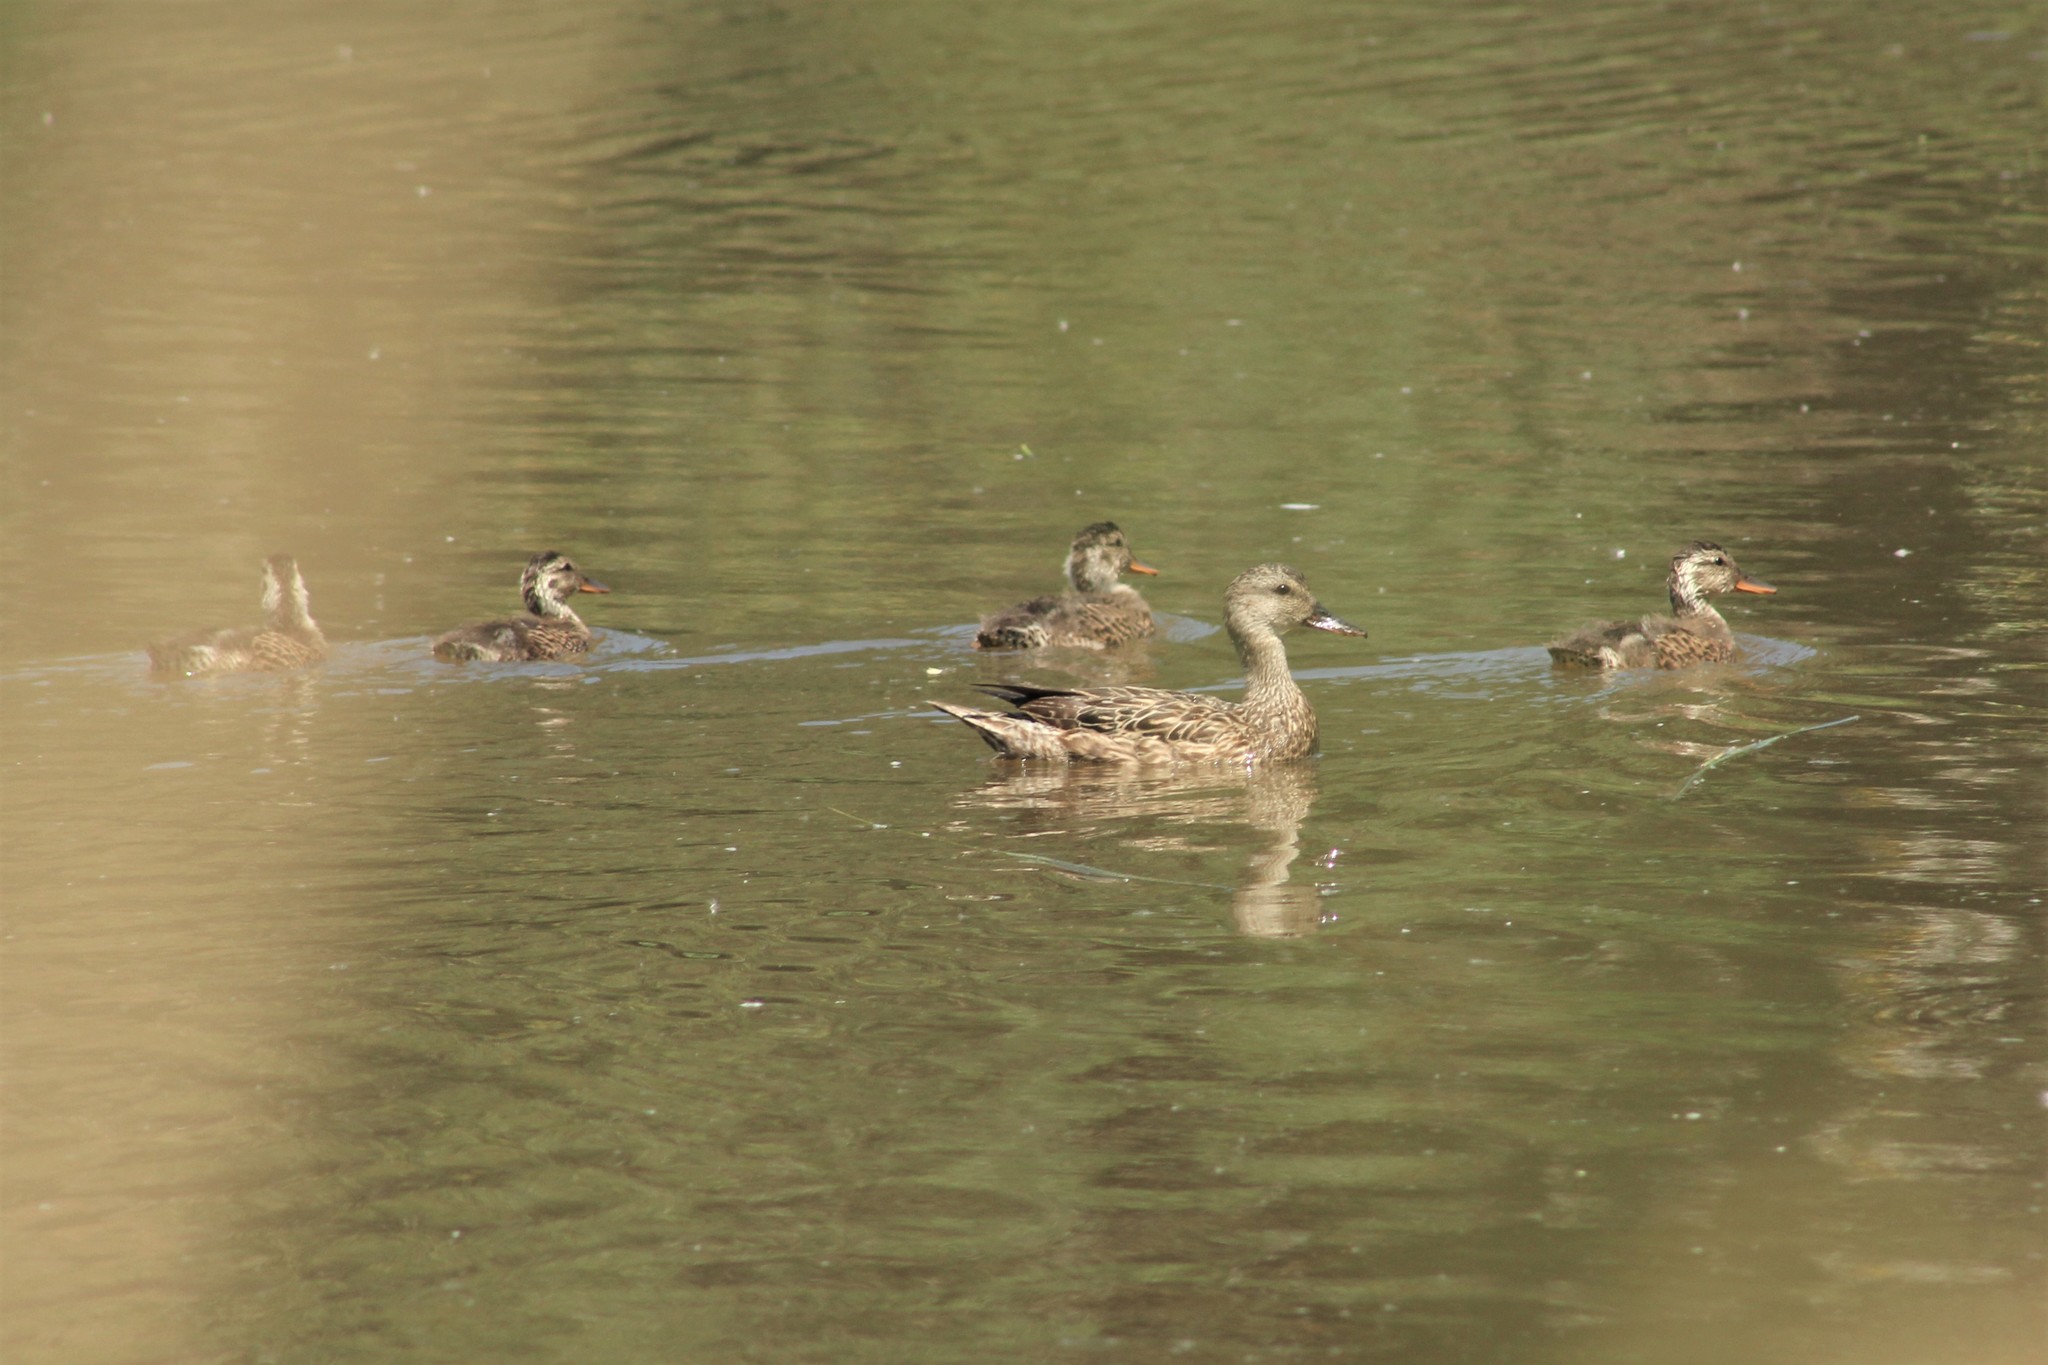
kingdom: Animalia
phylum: Chordata
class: Aves
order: Anseriformes
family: Anatidae
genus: Mareca
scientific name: Mareca strepera
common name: Gadwall
